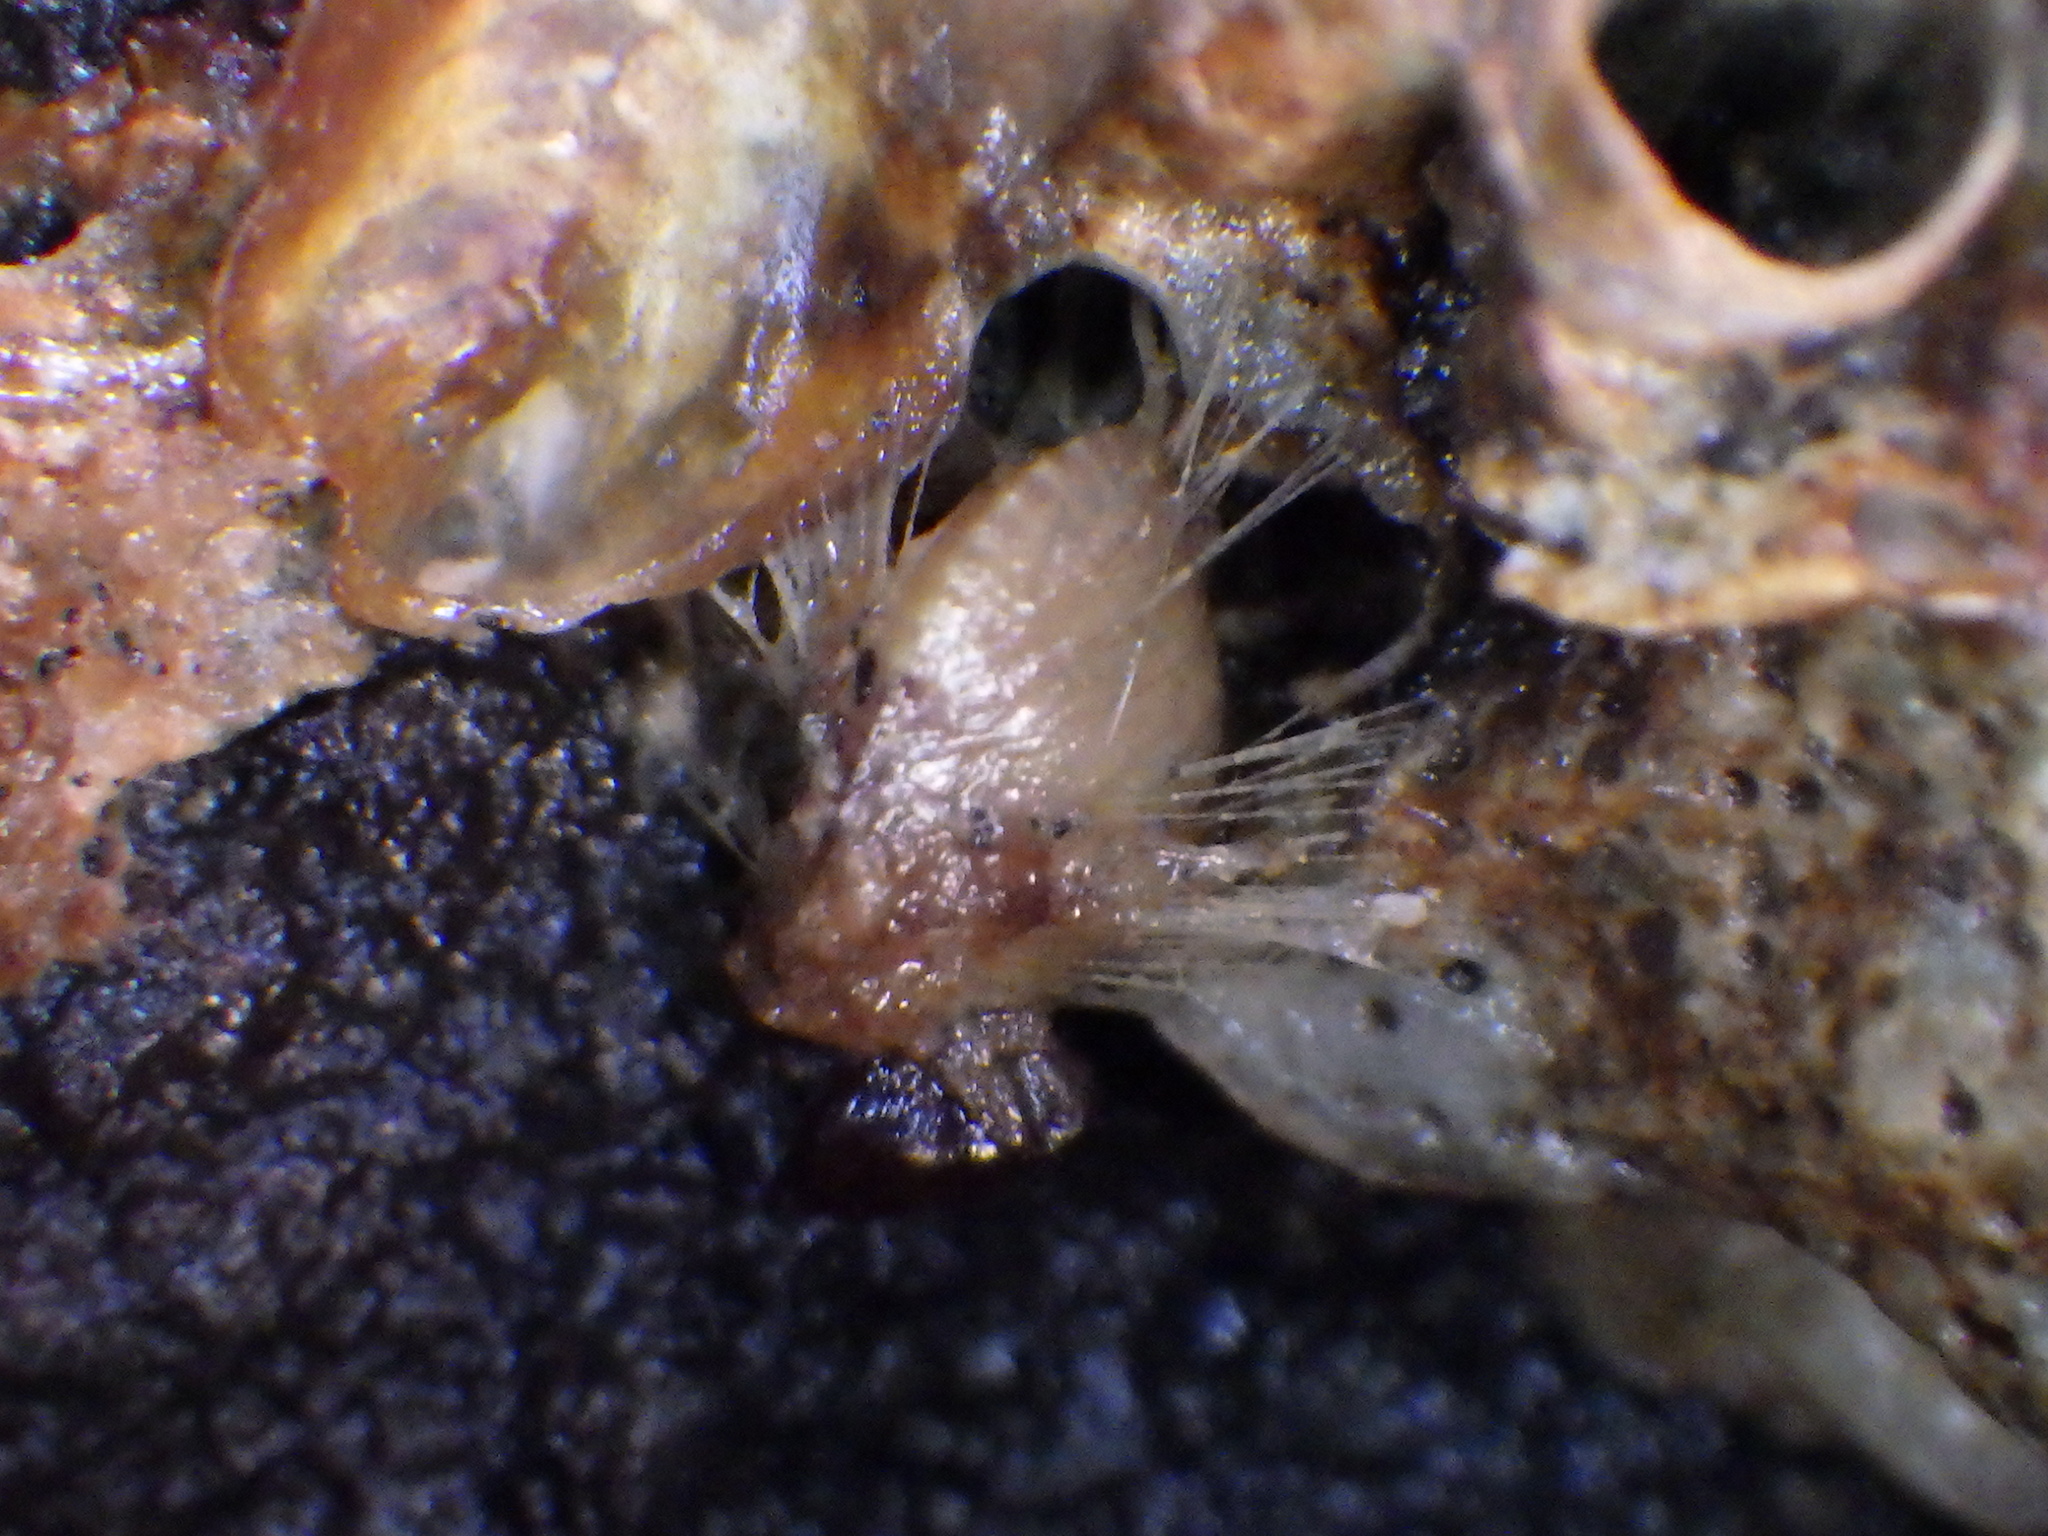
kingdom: Animalia
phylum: Mollusca
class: Bivalvia
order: Mytilida
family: Mytilidae
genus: Musculus
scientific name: Musculus impactus
